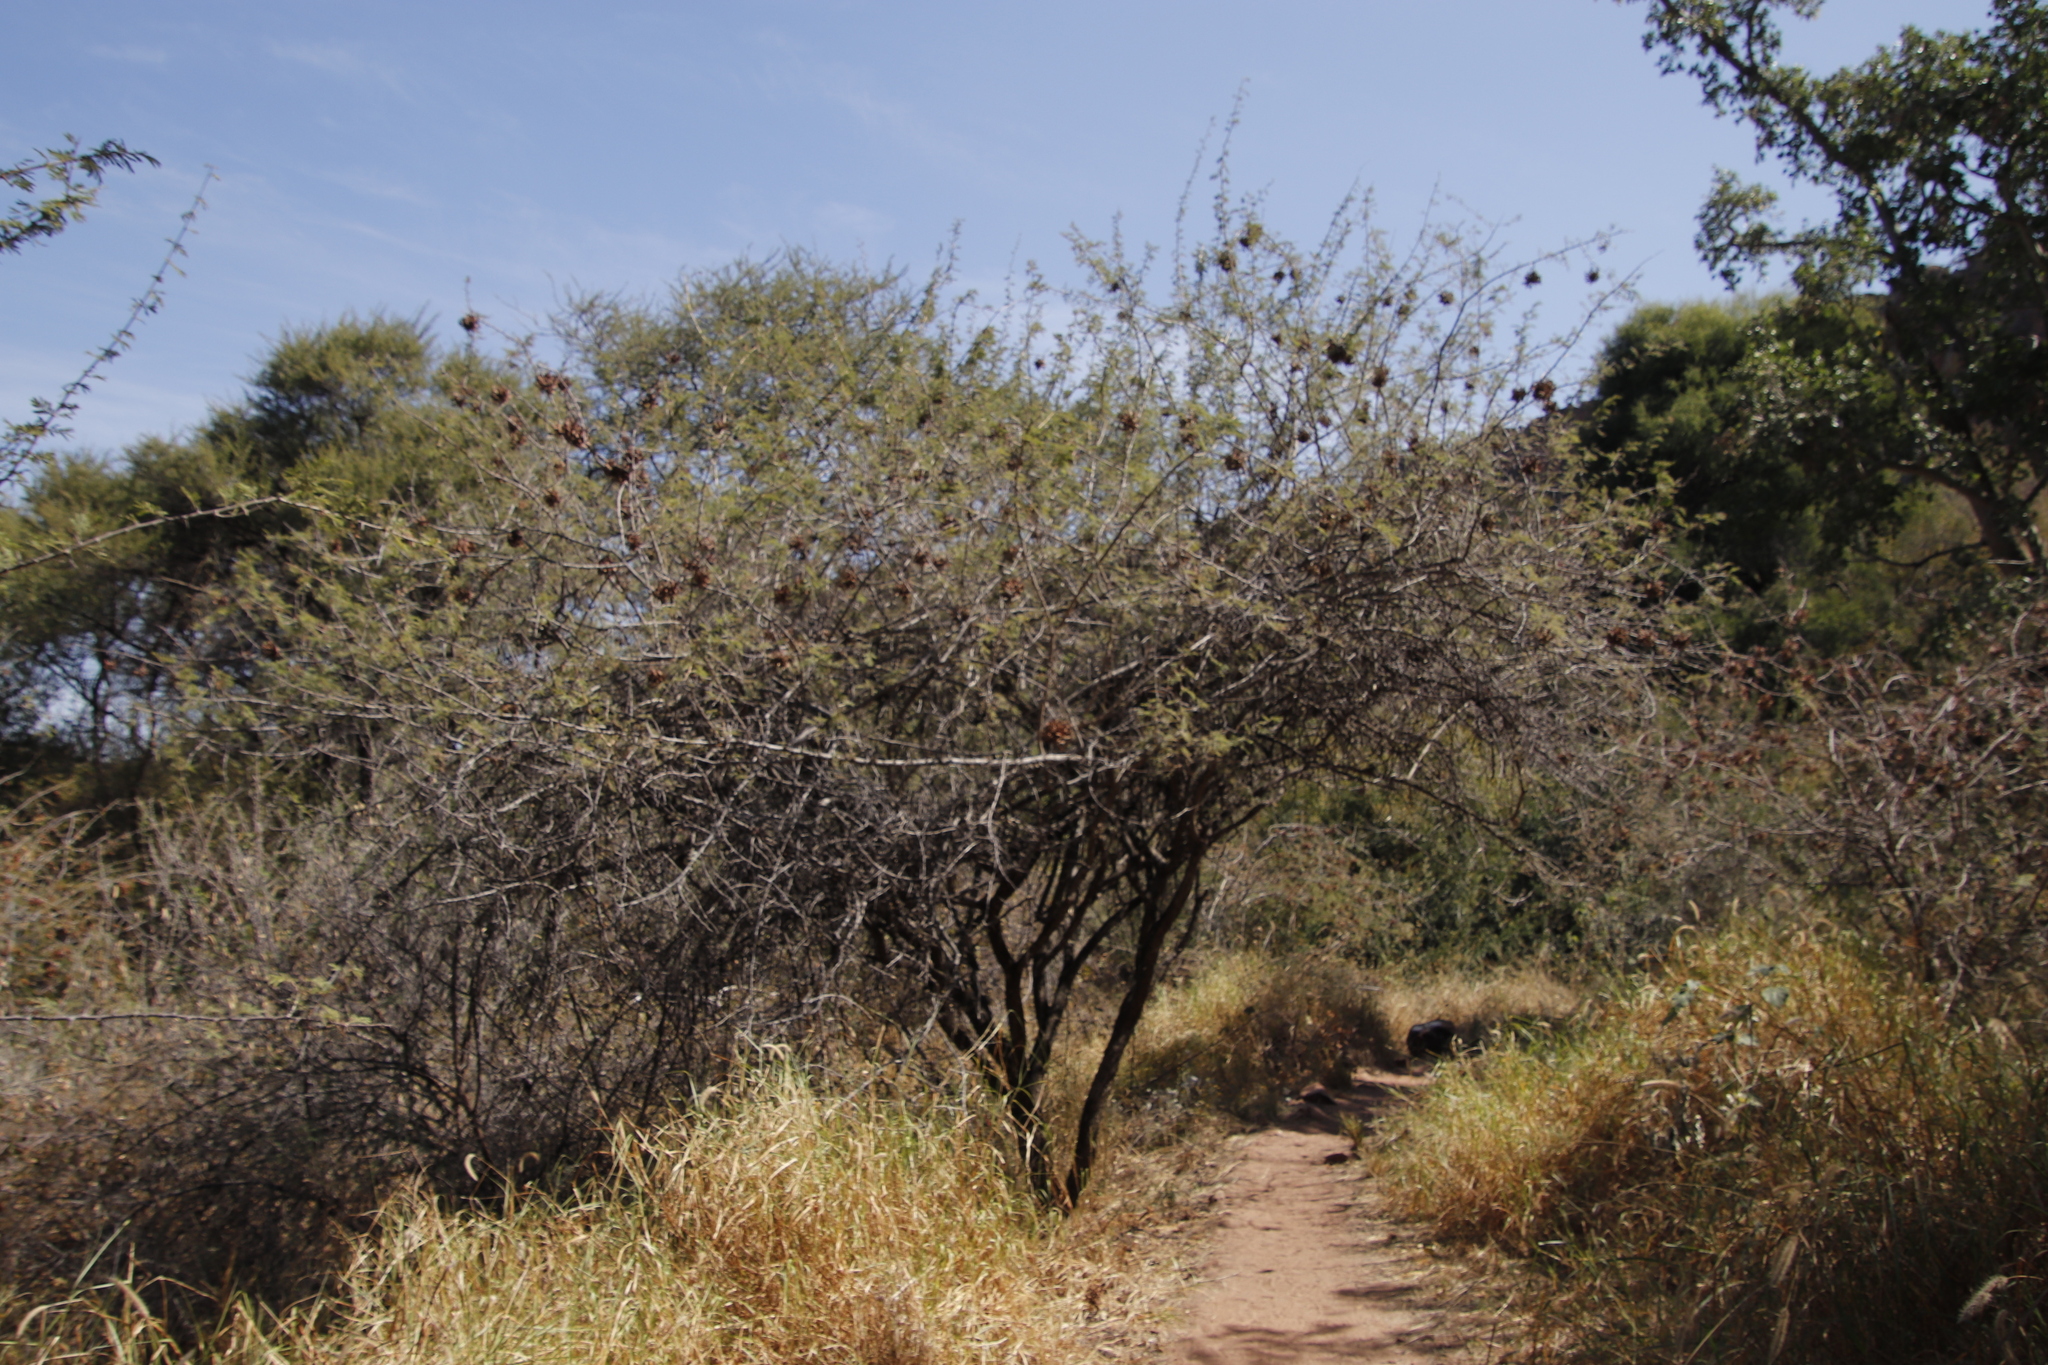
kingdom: Plantae
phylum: Tracheophyta
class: Magnoliopsida
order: Fabales
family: Fabaceae
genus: Dichrostachys
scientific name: Dichrostachys cinerea
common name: Sicklebush
